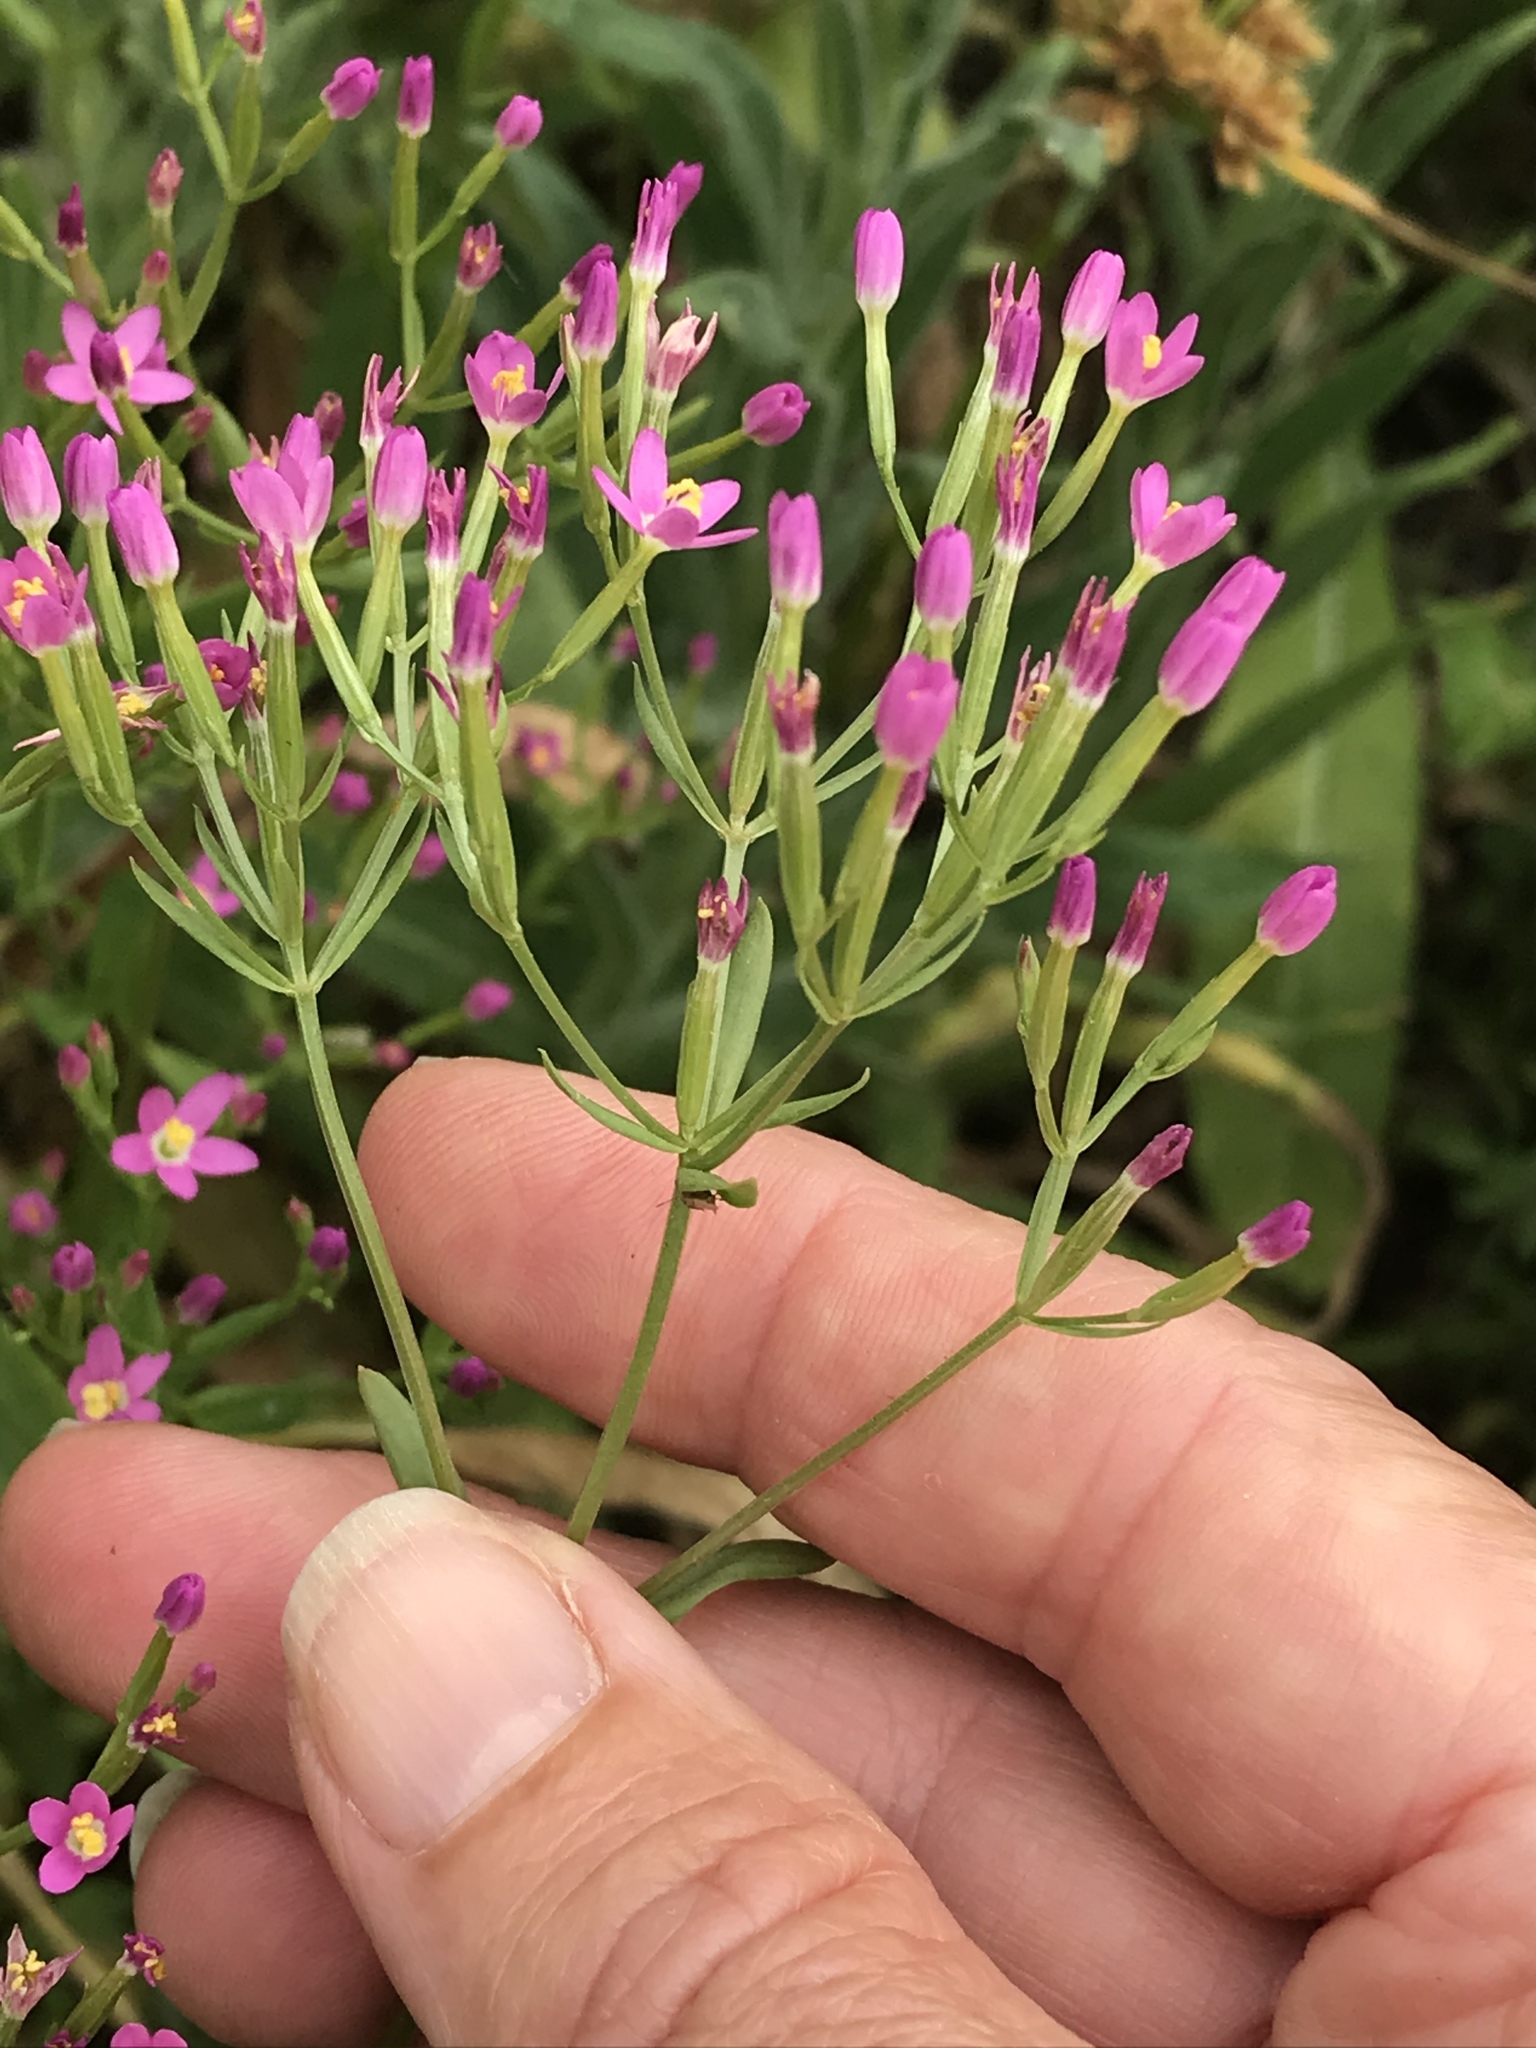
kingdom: Plantae
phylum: Tracheophyta
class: Magnoliopsida
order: Gentianales
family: Gentianaceae
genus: Zeltnera
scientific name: Zeltnera muhlenbergii
